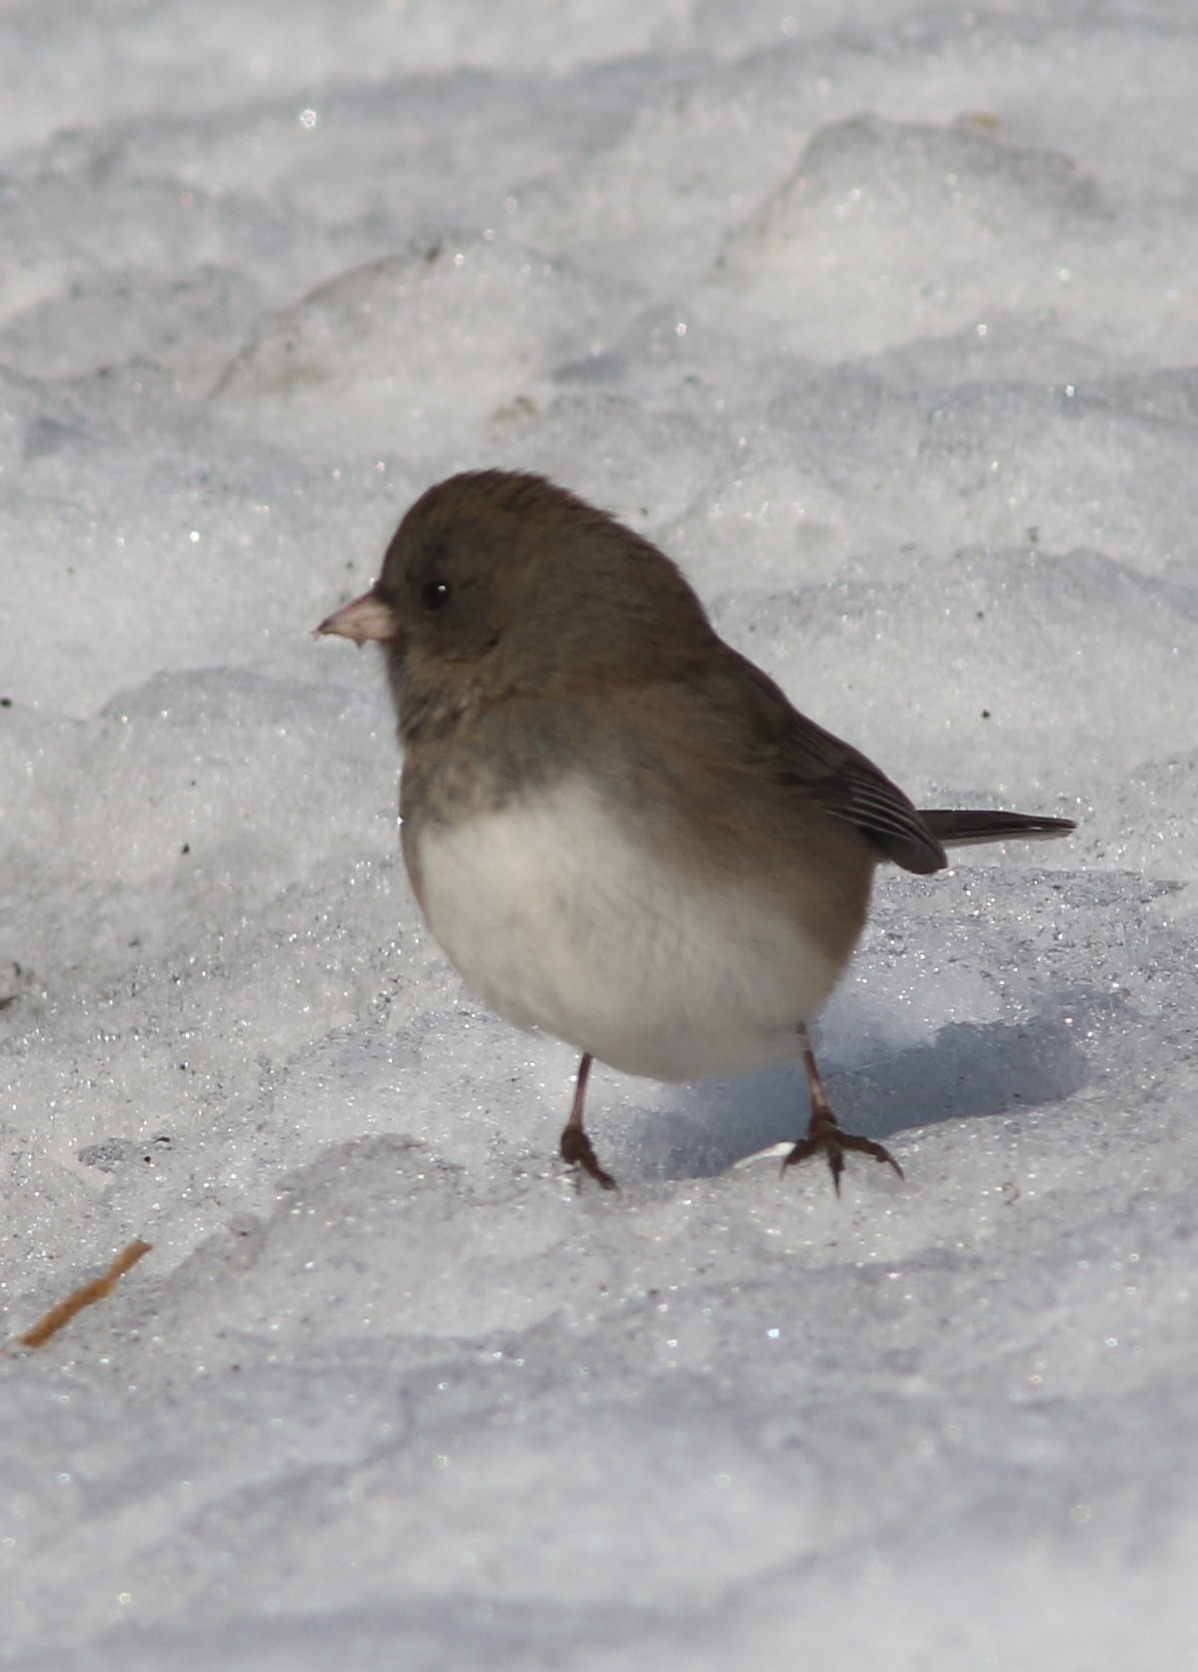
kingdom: Animalia
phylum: Chordata
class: Aves
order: Passeriformes
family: Passerellidae
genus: Junco
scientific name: Junco hyemalis
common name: Dark-eyed junco
